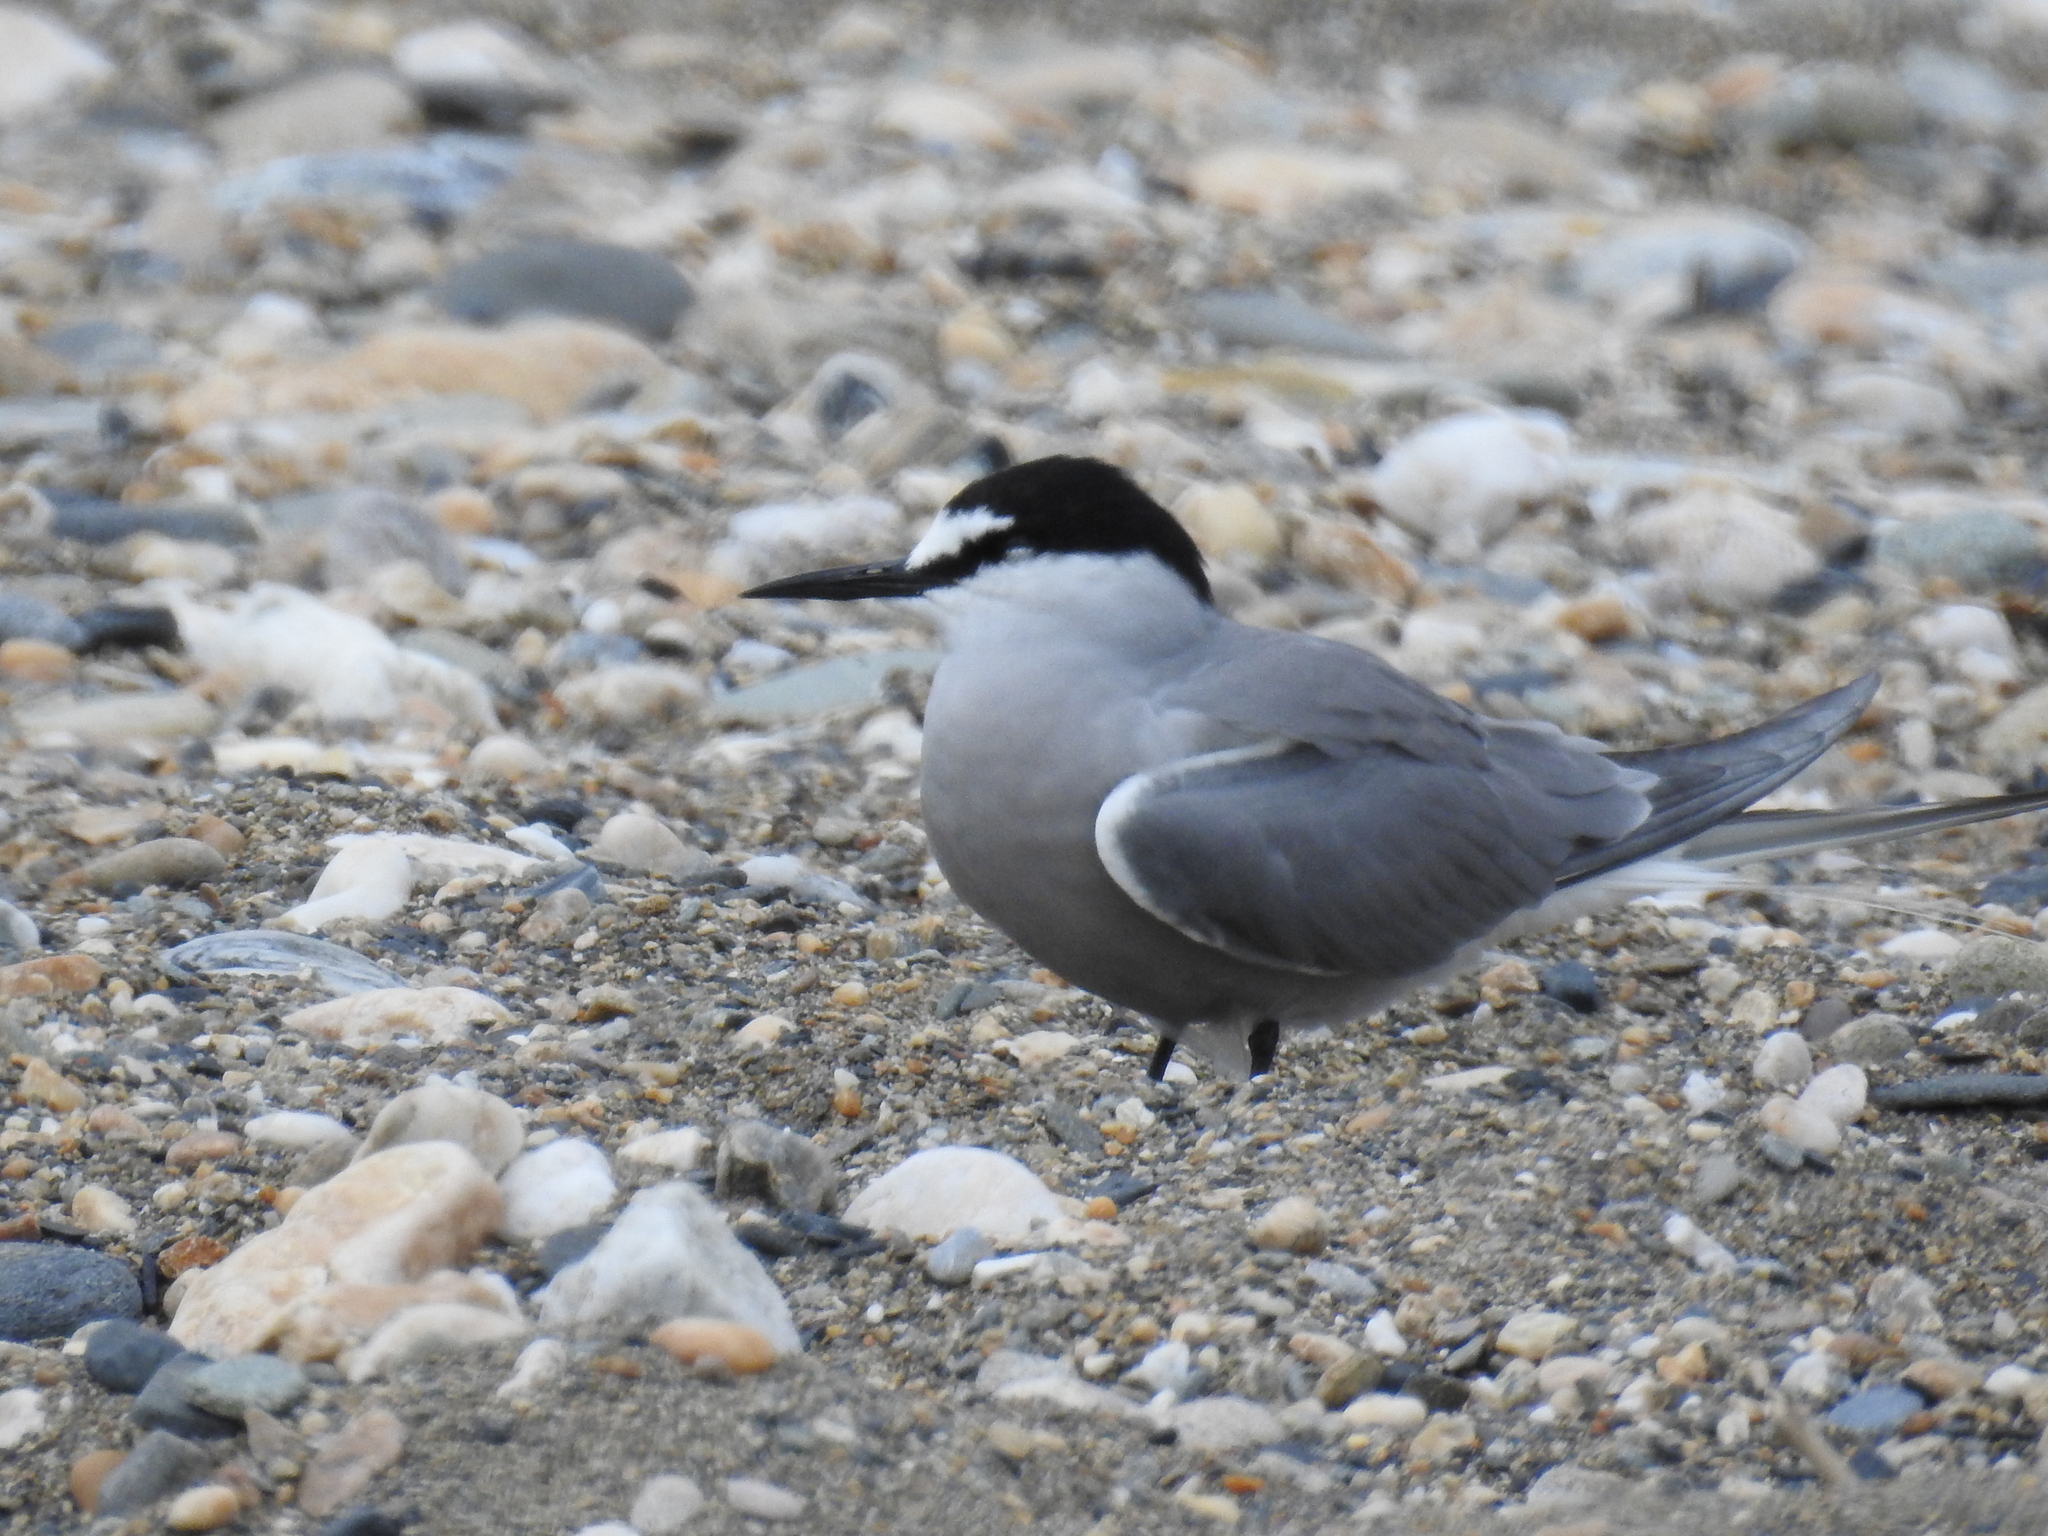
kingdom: Animalia
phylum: Chordata
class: Aves
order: Charadriiformes
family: Laridae
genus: Onychoprion
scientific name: Onychoprion aleuticus
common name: Aleutian tern
